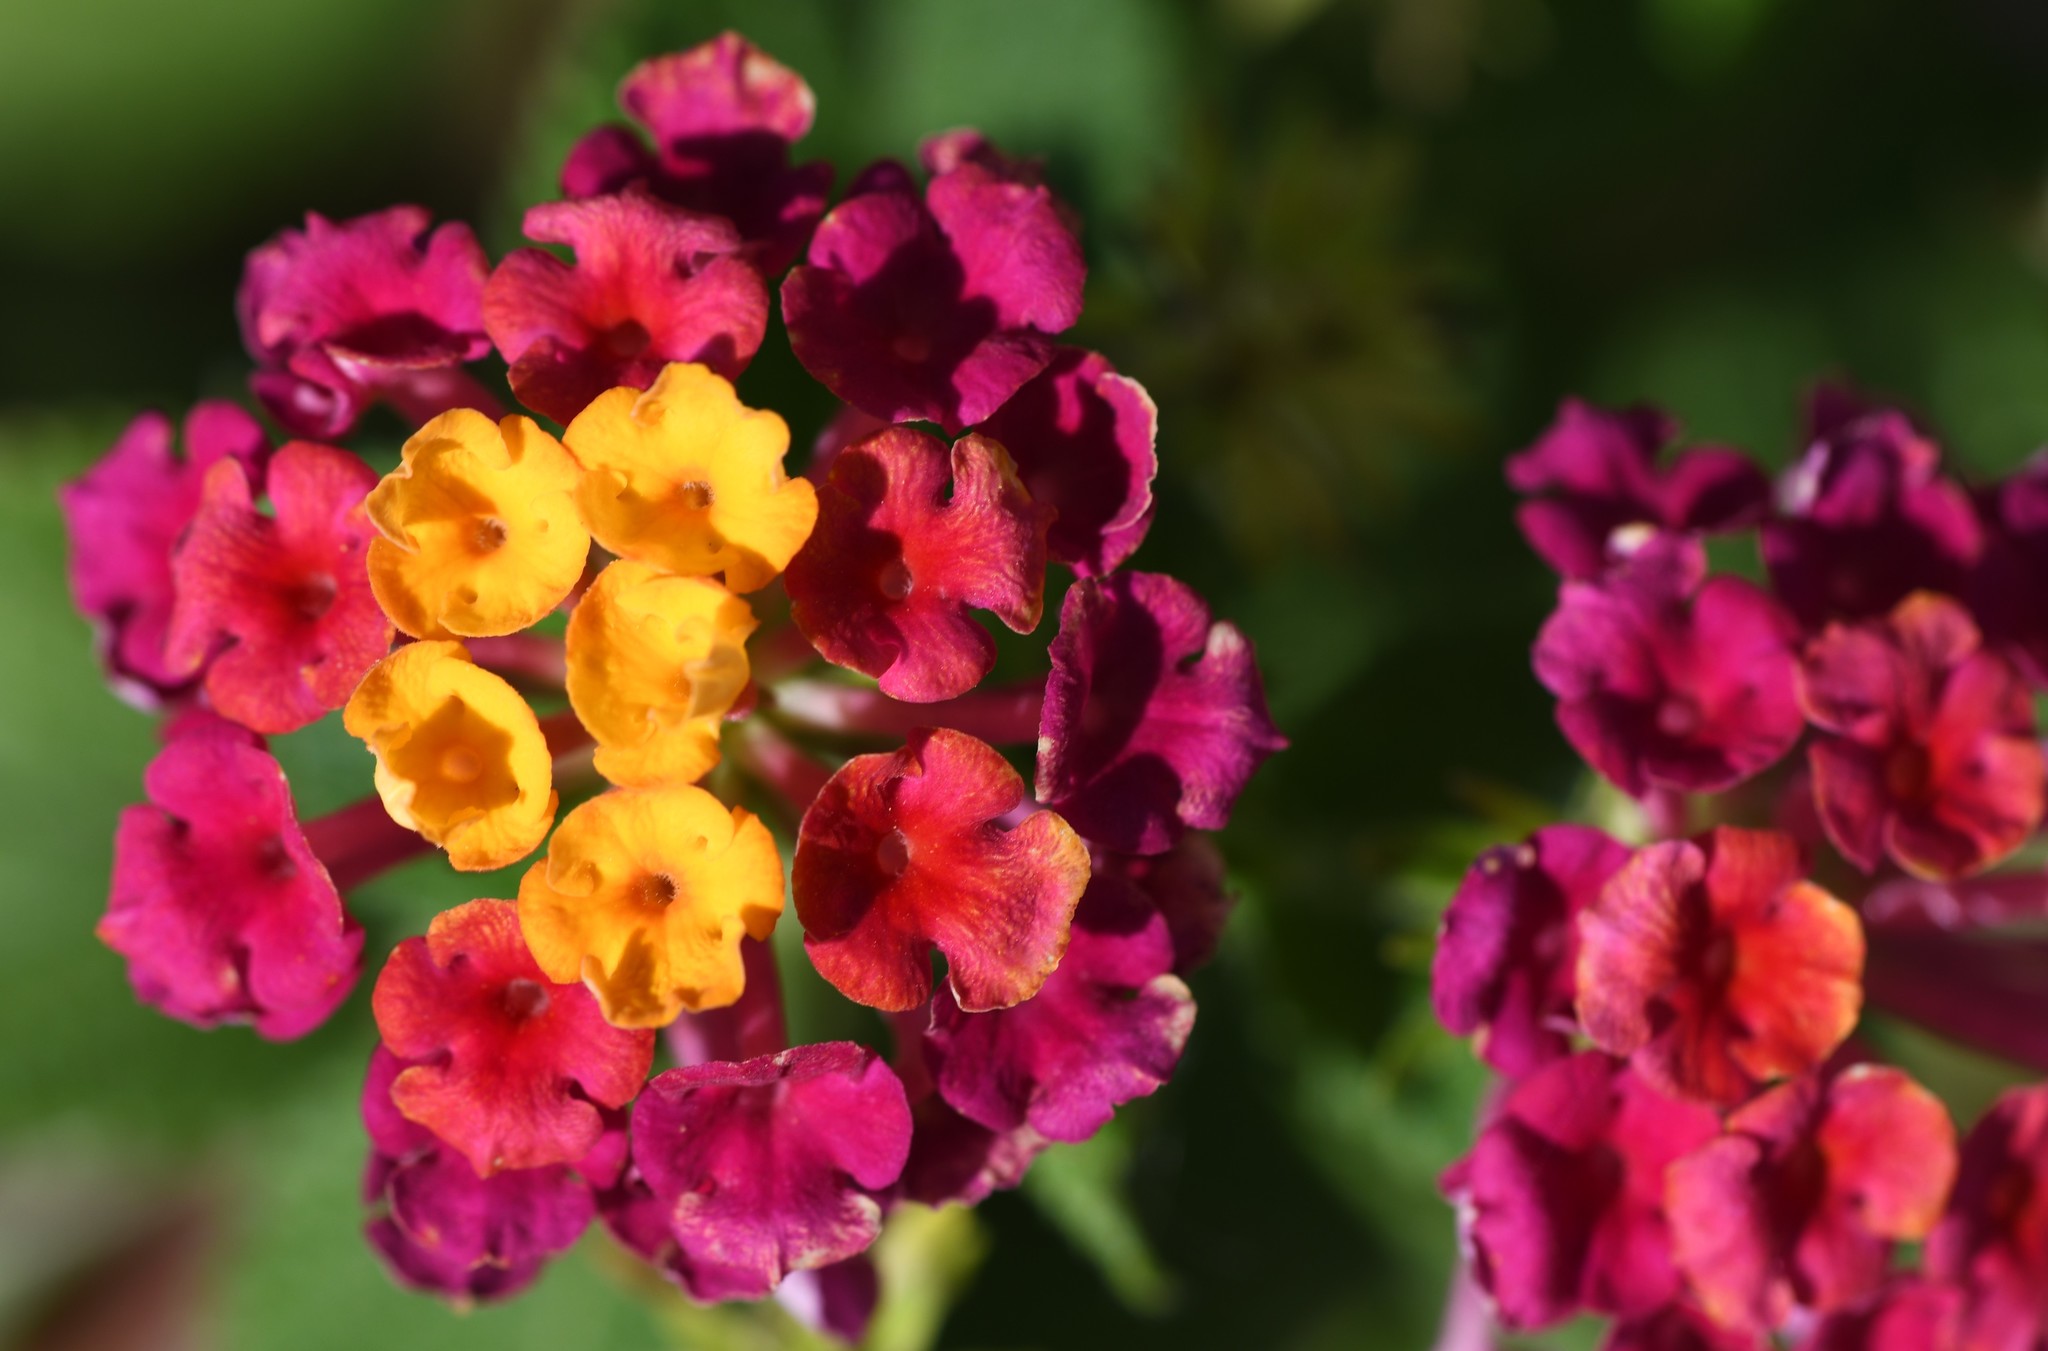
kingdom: Plantae
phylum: Tracheophyta
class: Magnoliopsida
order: Lamiales
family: Verbenaceae
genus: Lantana
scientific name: Lantana camara
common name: Lantana
